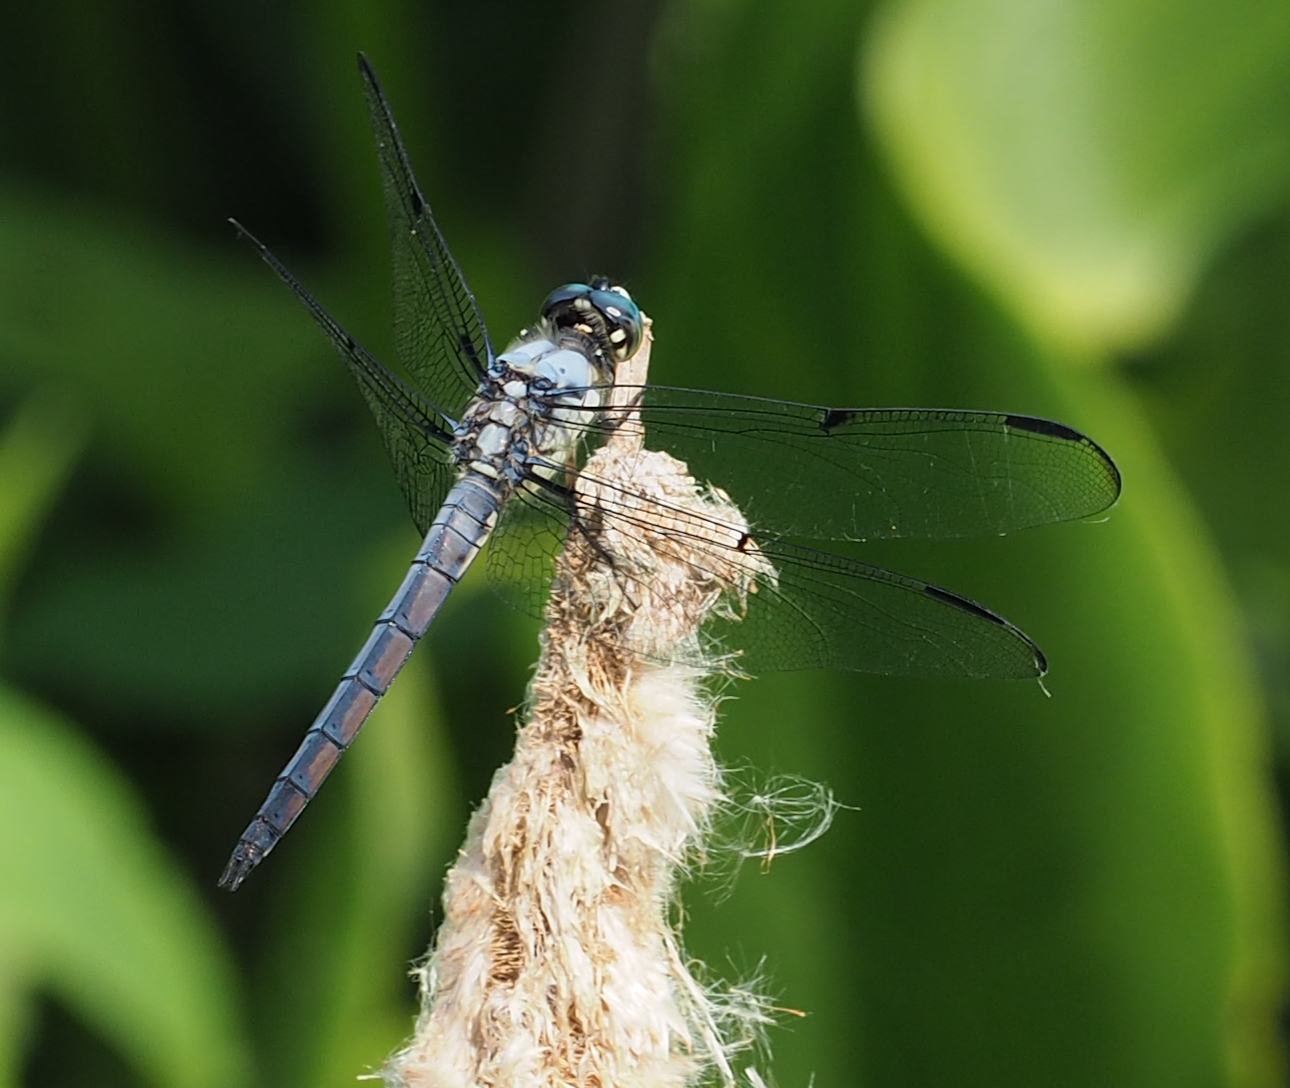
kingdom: Animalia
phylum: Arthropoda
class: Insecta
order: Odonata
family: Libellulidae
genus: Libellula
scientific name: Libellula vibrans
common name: Great blue skimmer
